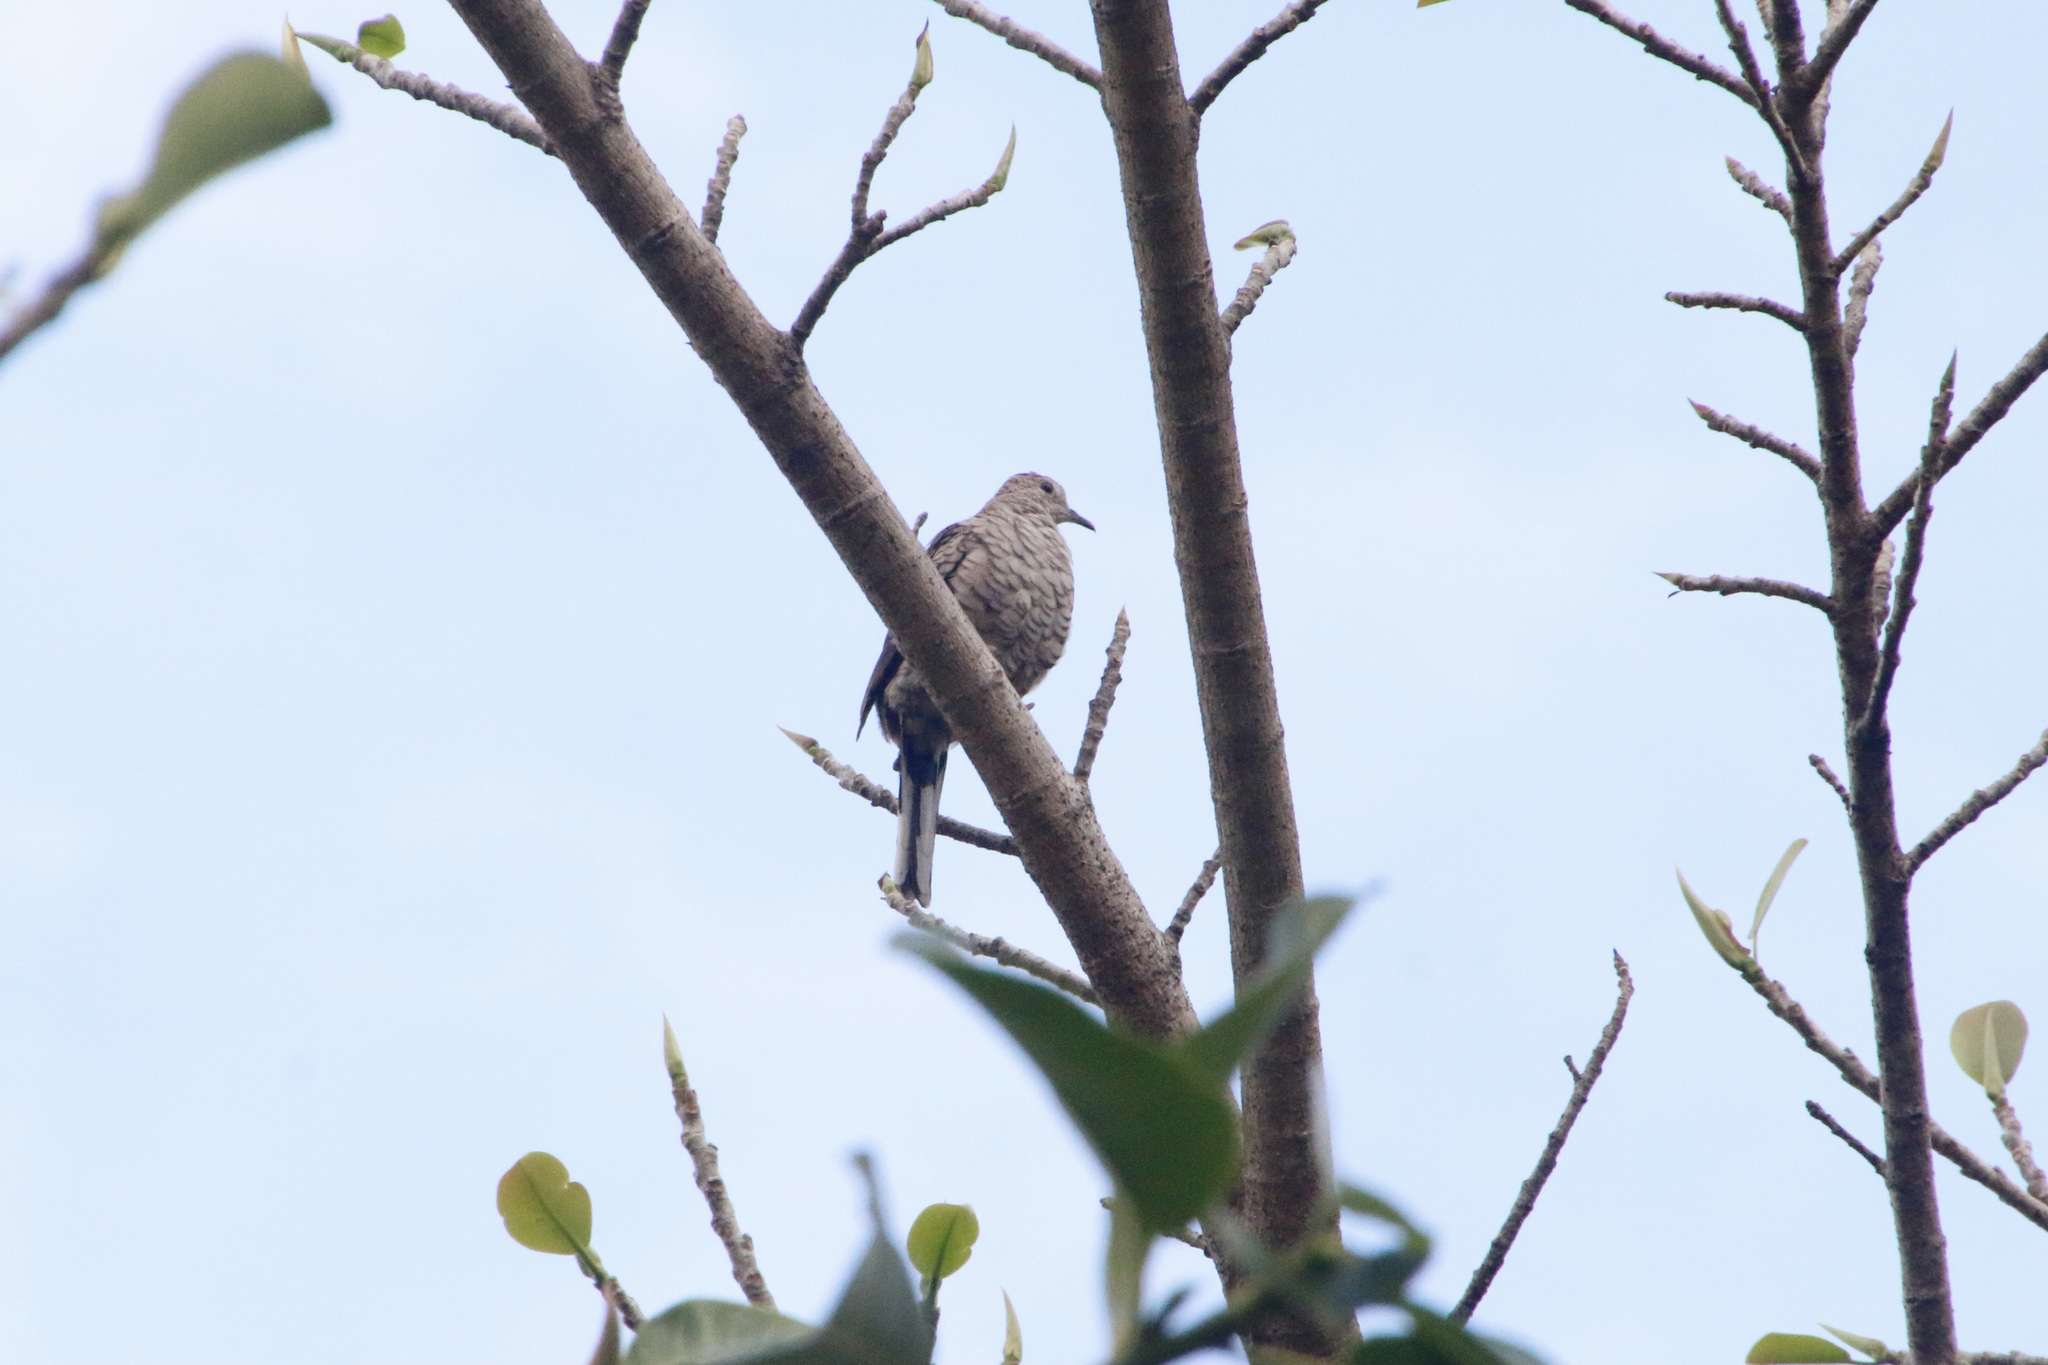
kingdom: Animalia
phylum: Chordata
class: Aves
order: Columbiformes
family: Columbidae
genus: Columbina
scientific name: Columbina inca
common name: Inca dove
